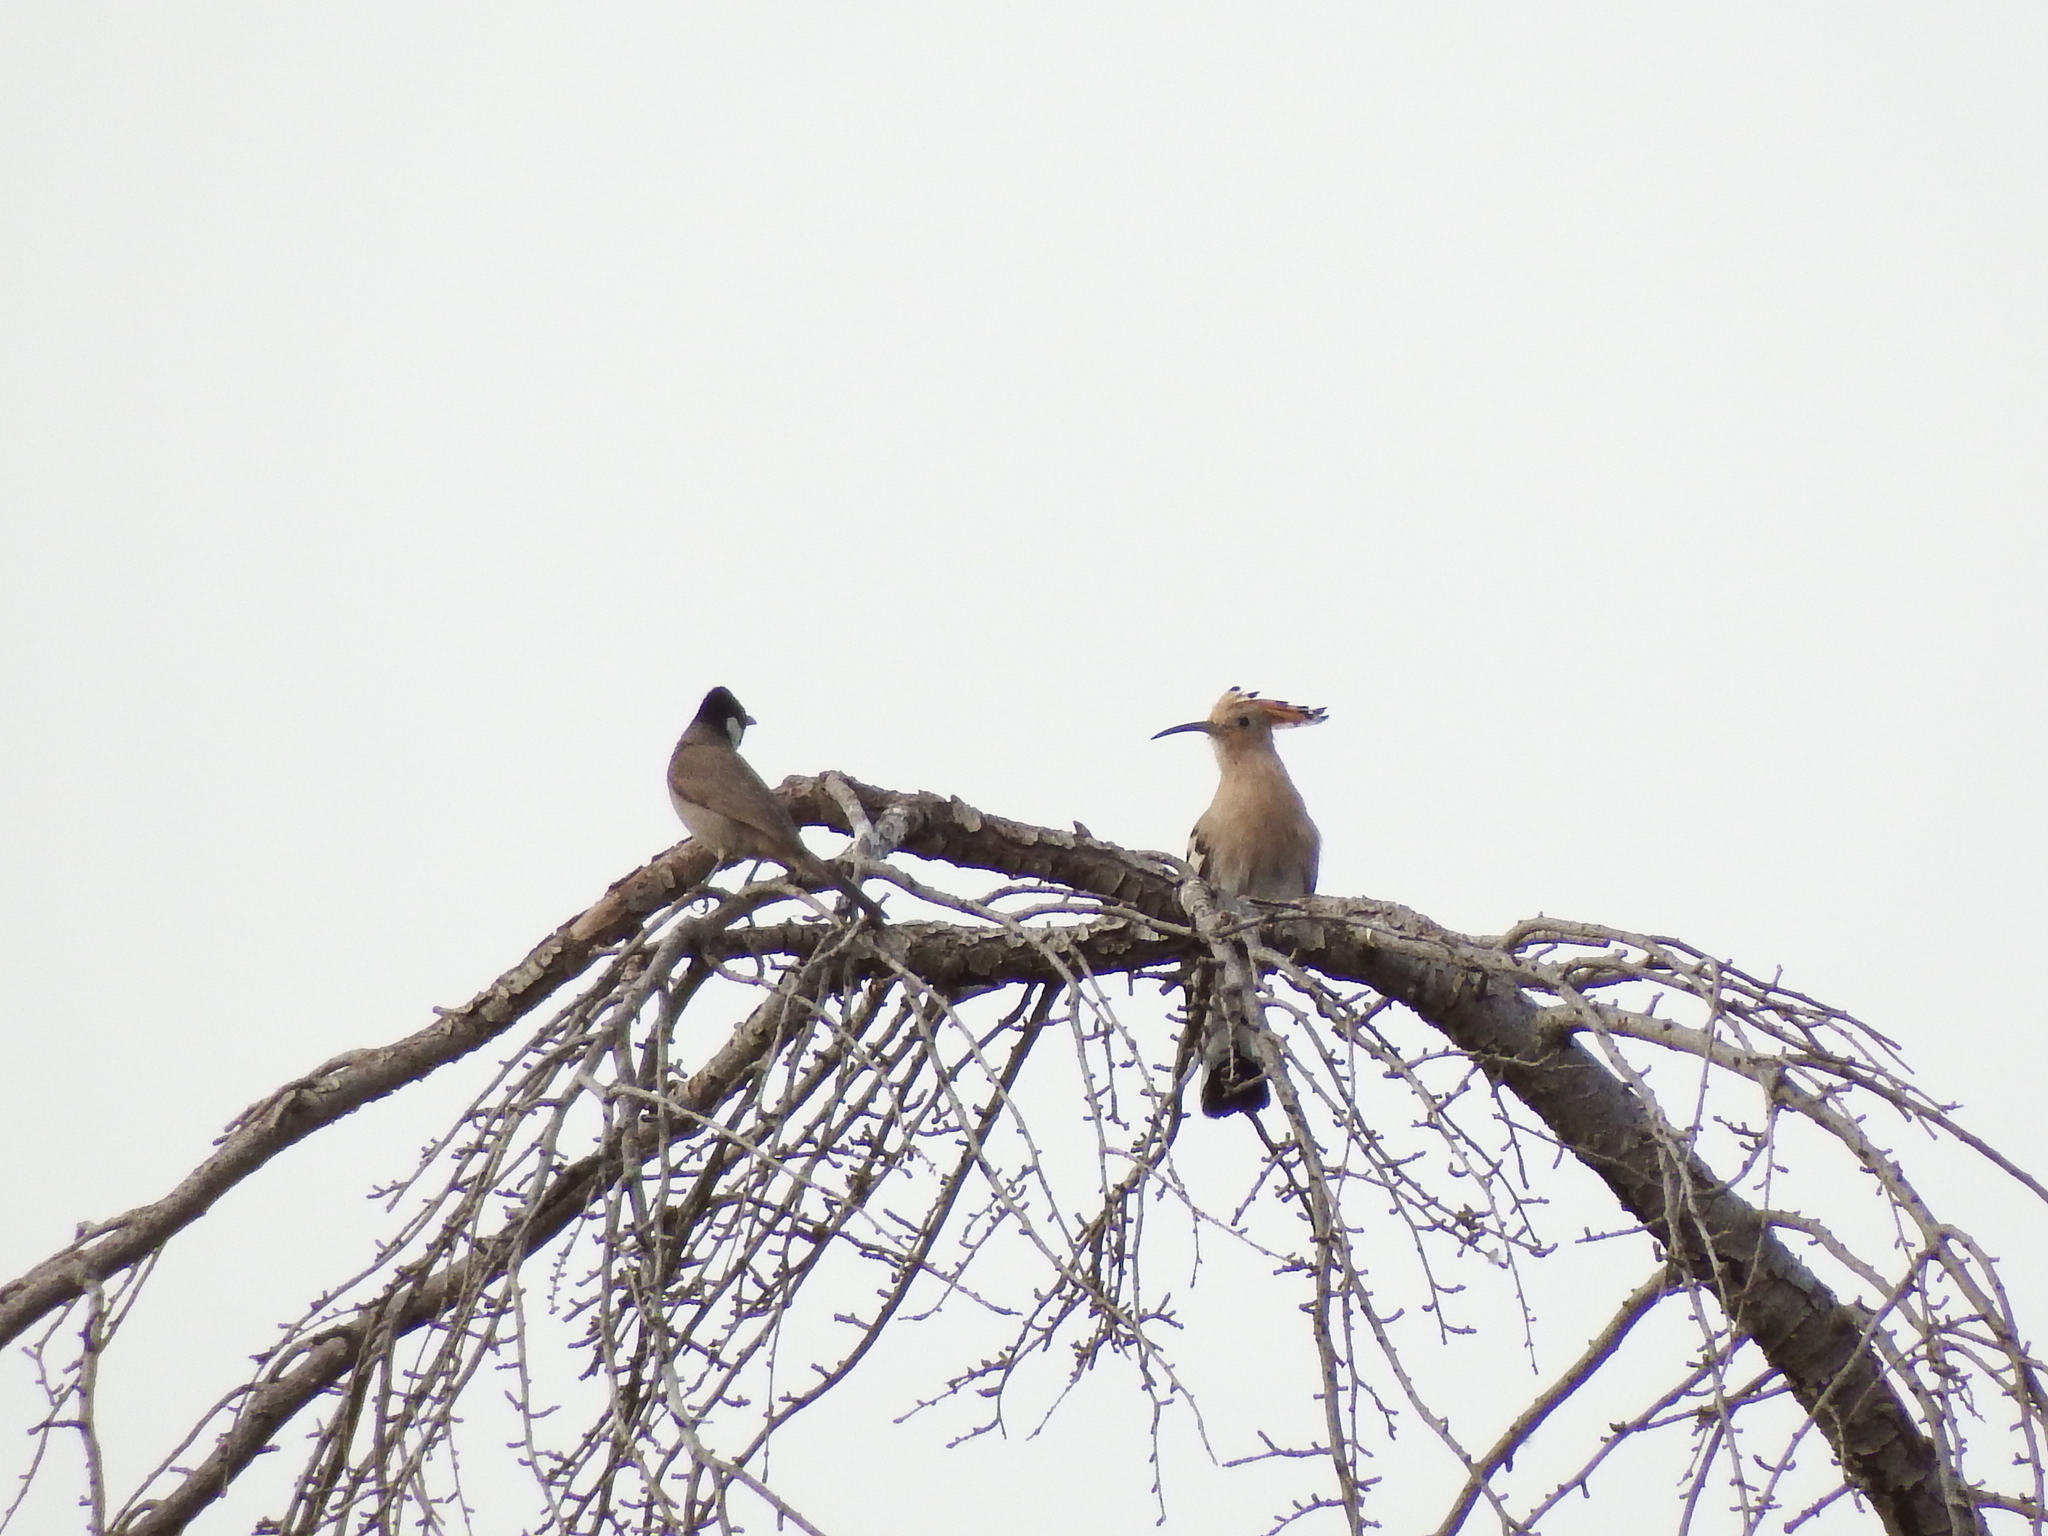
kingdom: Animalia
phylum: Chordata
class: Aves
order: Bucerotiformes
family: Upupidae
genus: Upupa
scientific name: Upupa epops
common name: Eurasian hoopoe
